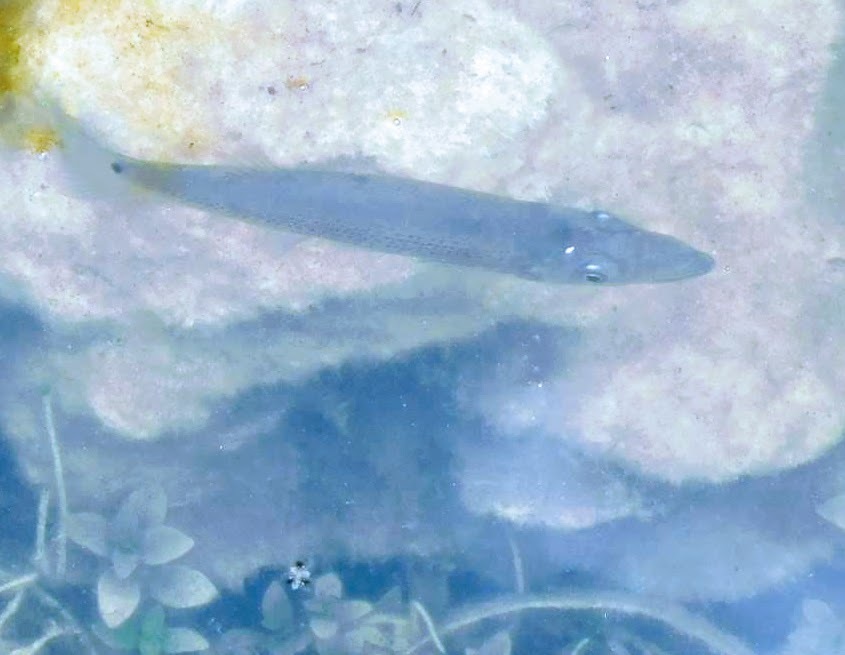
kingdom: Animalia
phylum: Chordata
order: Cyprinodontiformes
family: Poeciliidae
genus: Belonesox
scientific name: Belonesox belizanus
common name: Pike killifish
